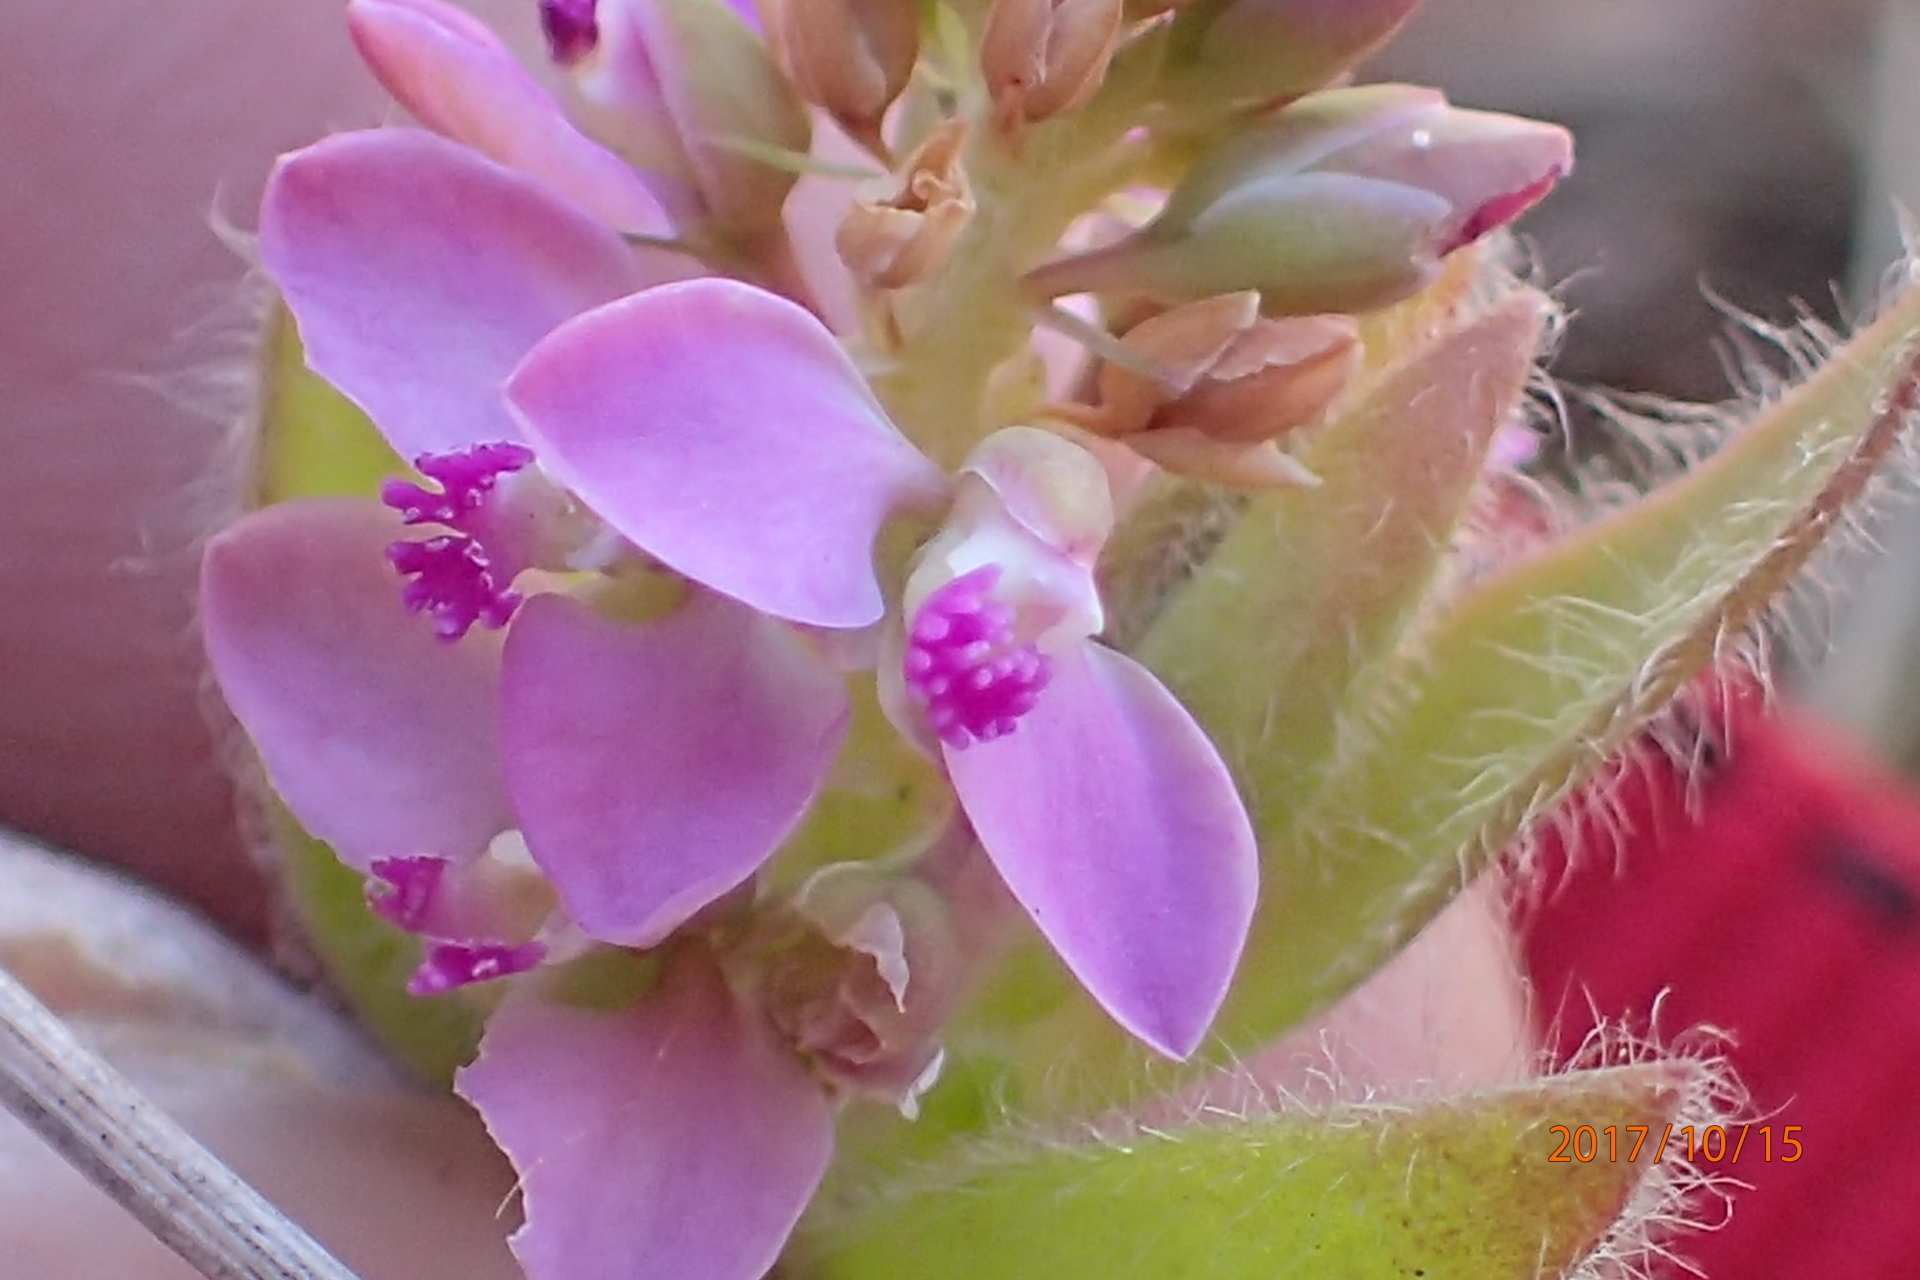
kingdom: Plantae
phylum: Tracheophyta
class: Magnoliopsida
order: Fabales
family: Polygalaceae
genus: Polygala
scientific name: Polygala hispida
